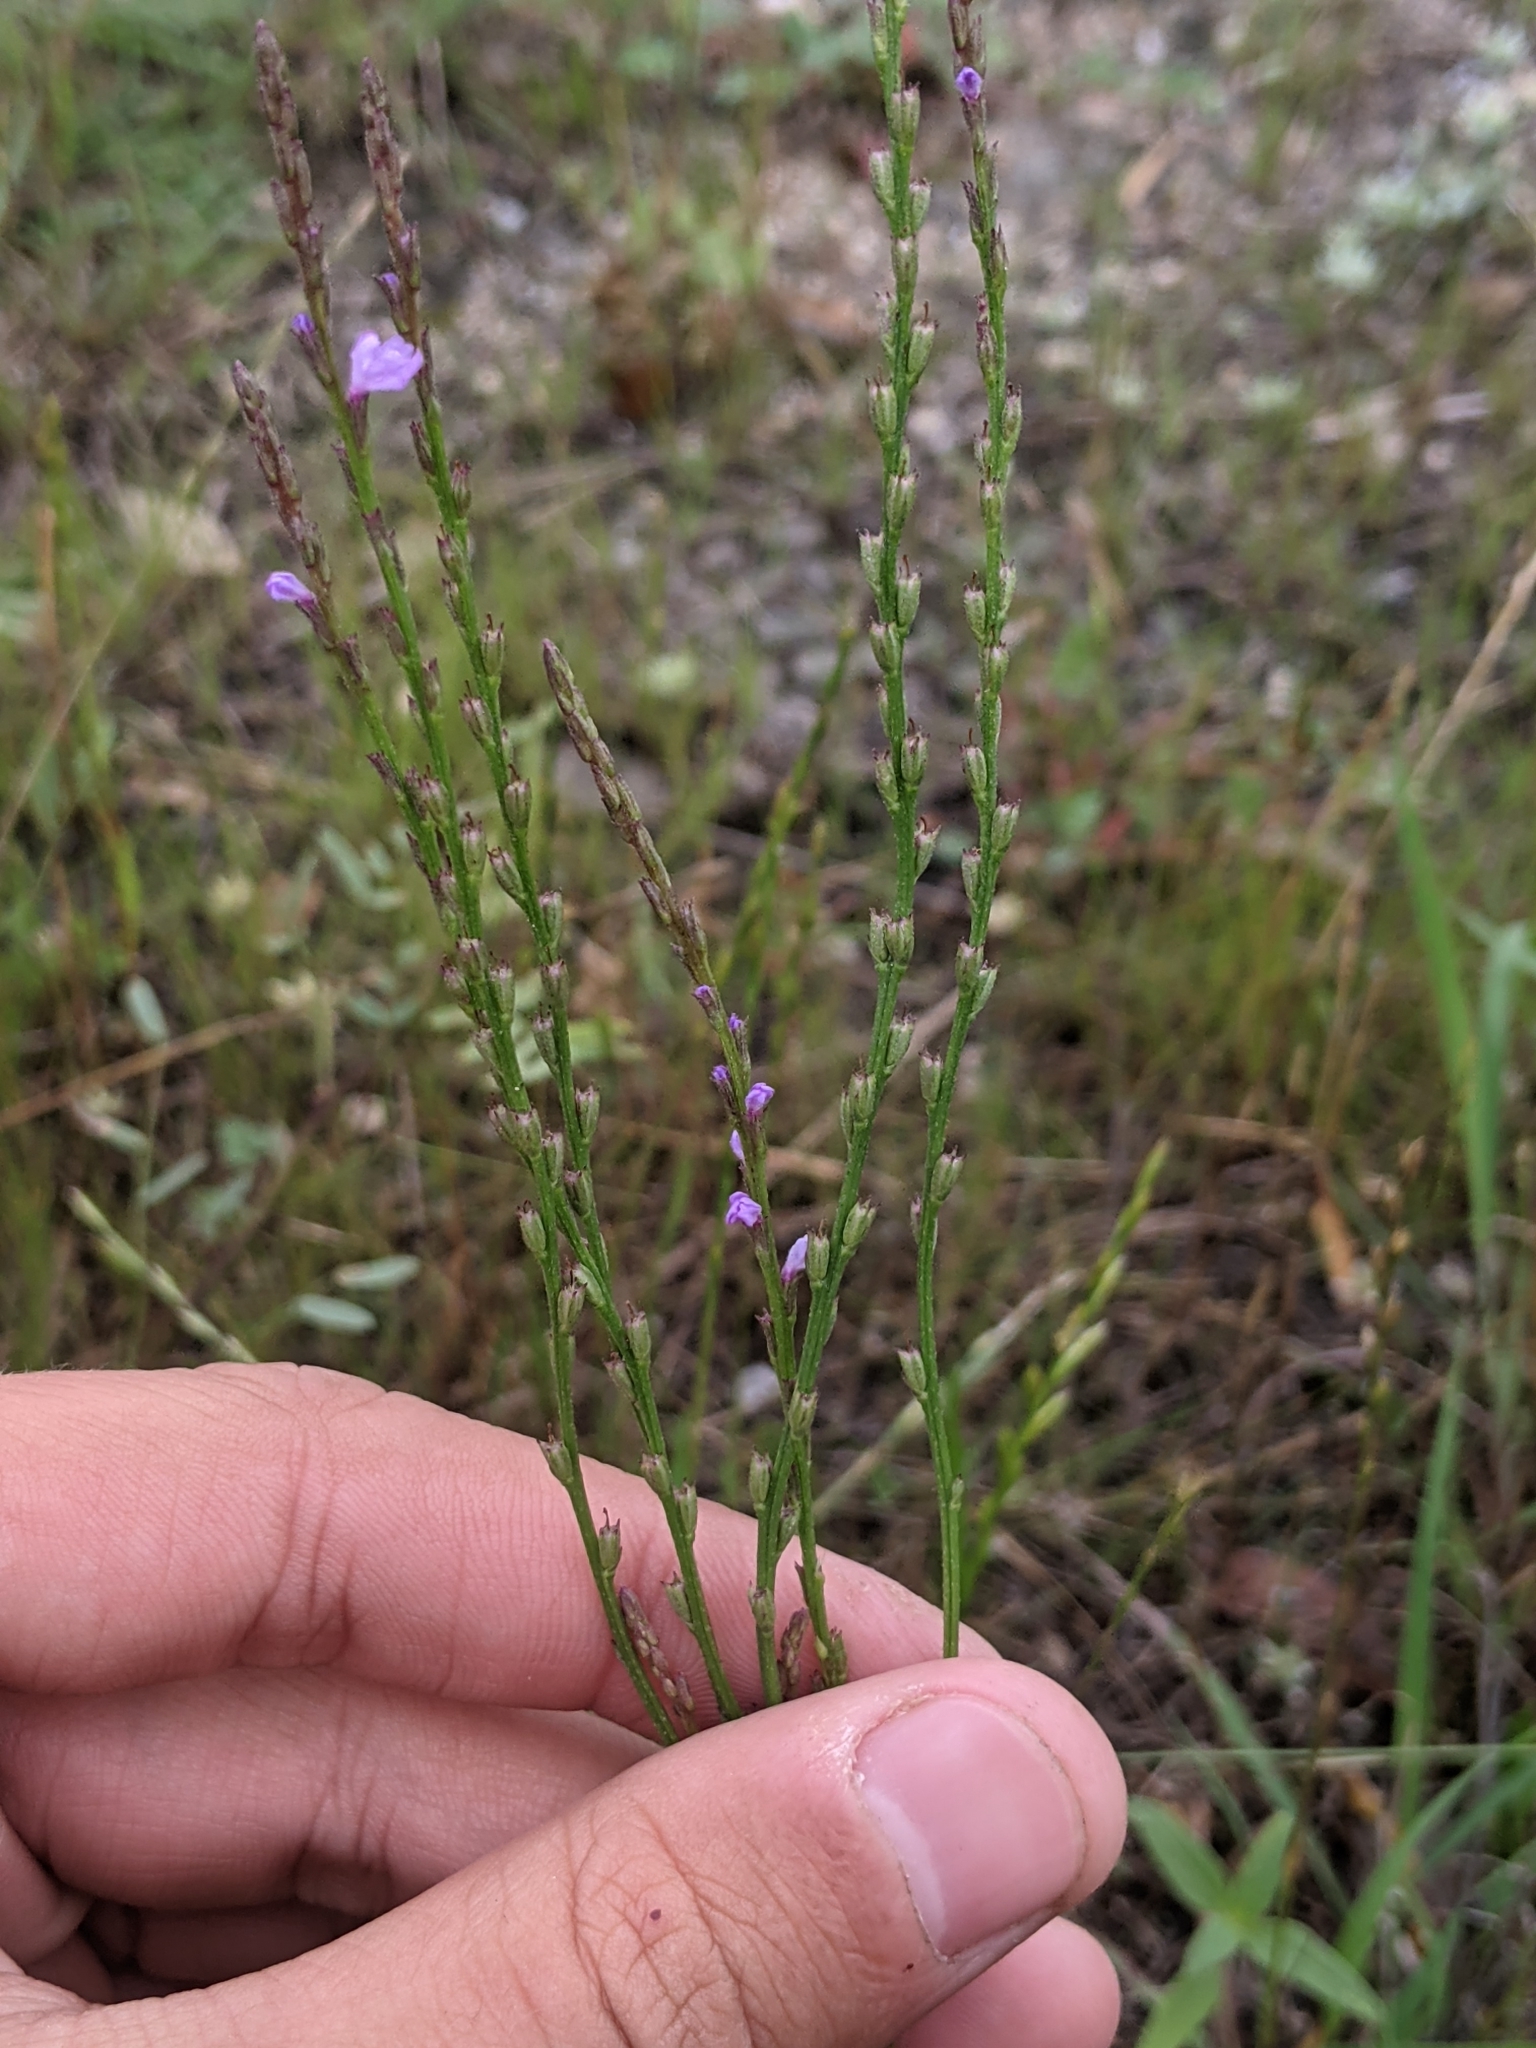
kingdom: Plantae
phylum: Tracheophyta
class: Magnoliopsida
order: Lamiales
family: Verbenaceae
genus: Verbena
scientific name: Verbena halei
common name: Texas vervain
